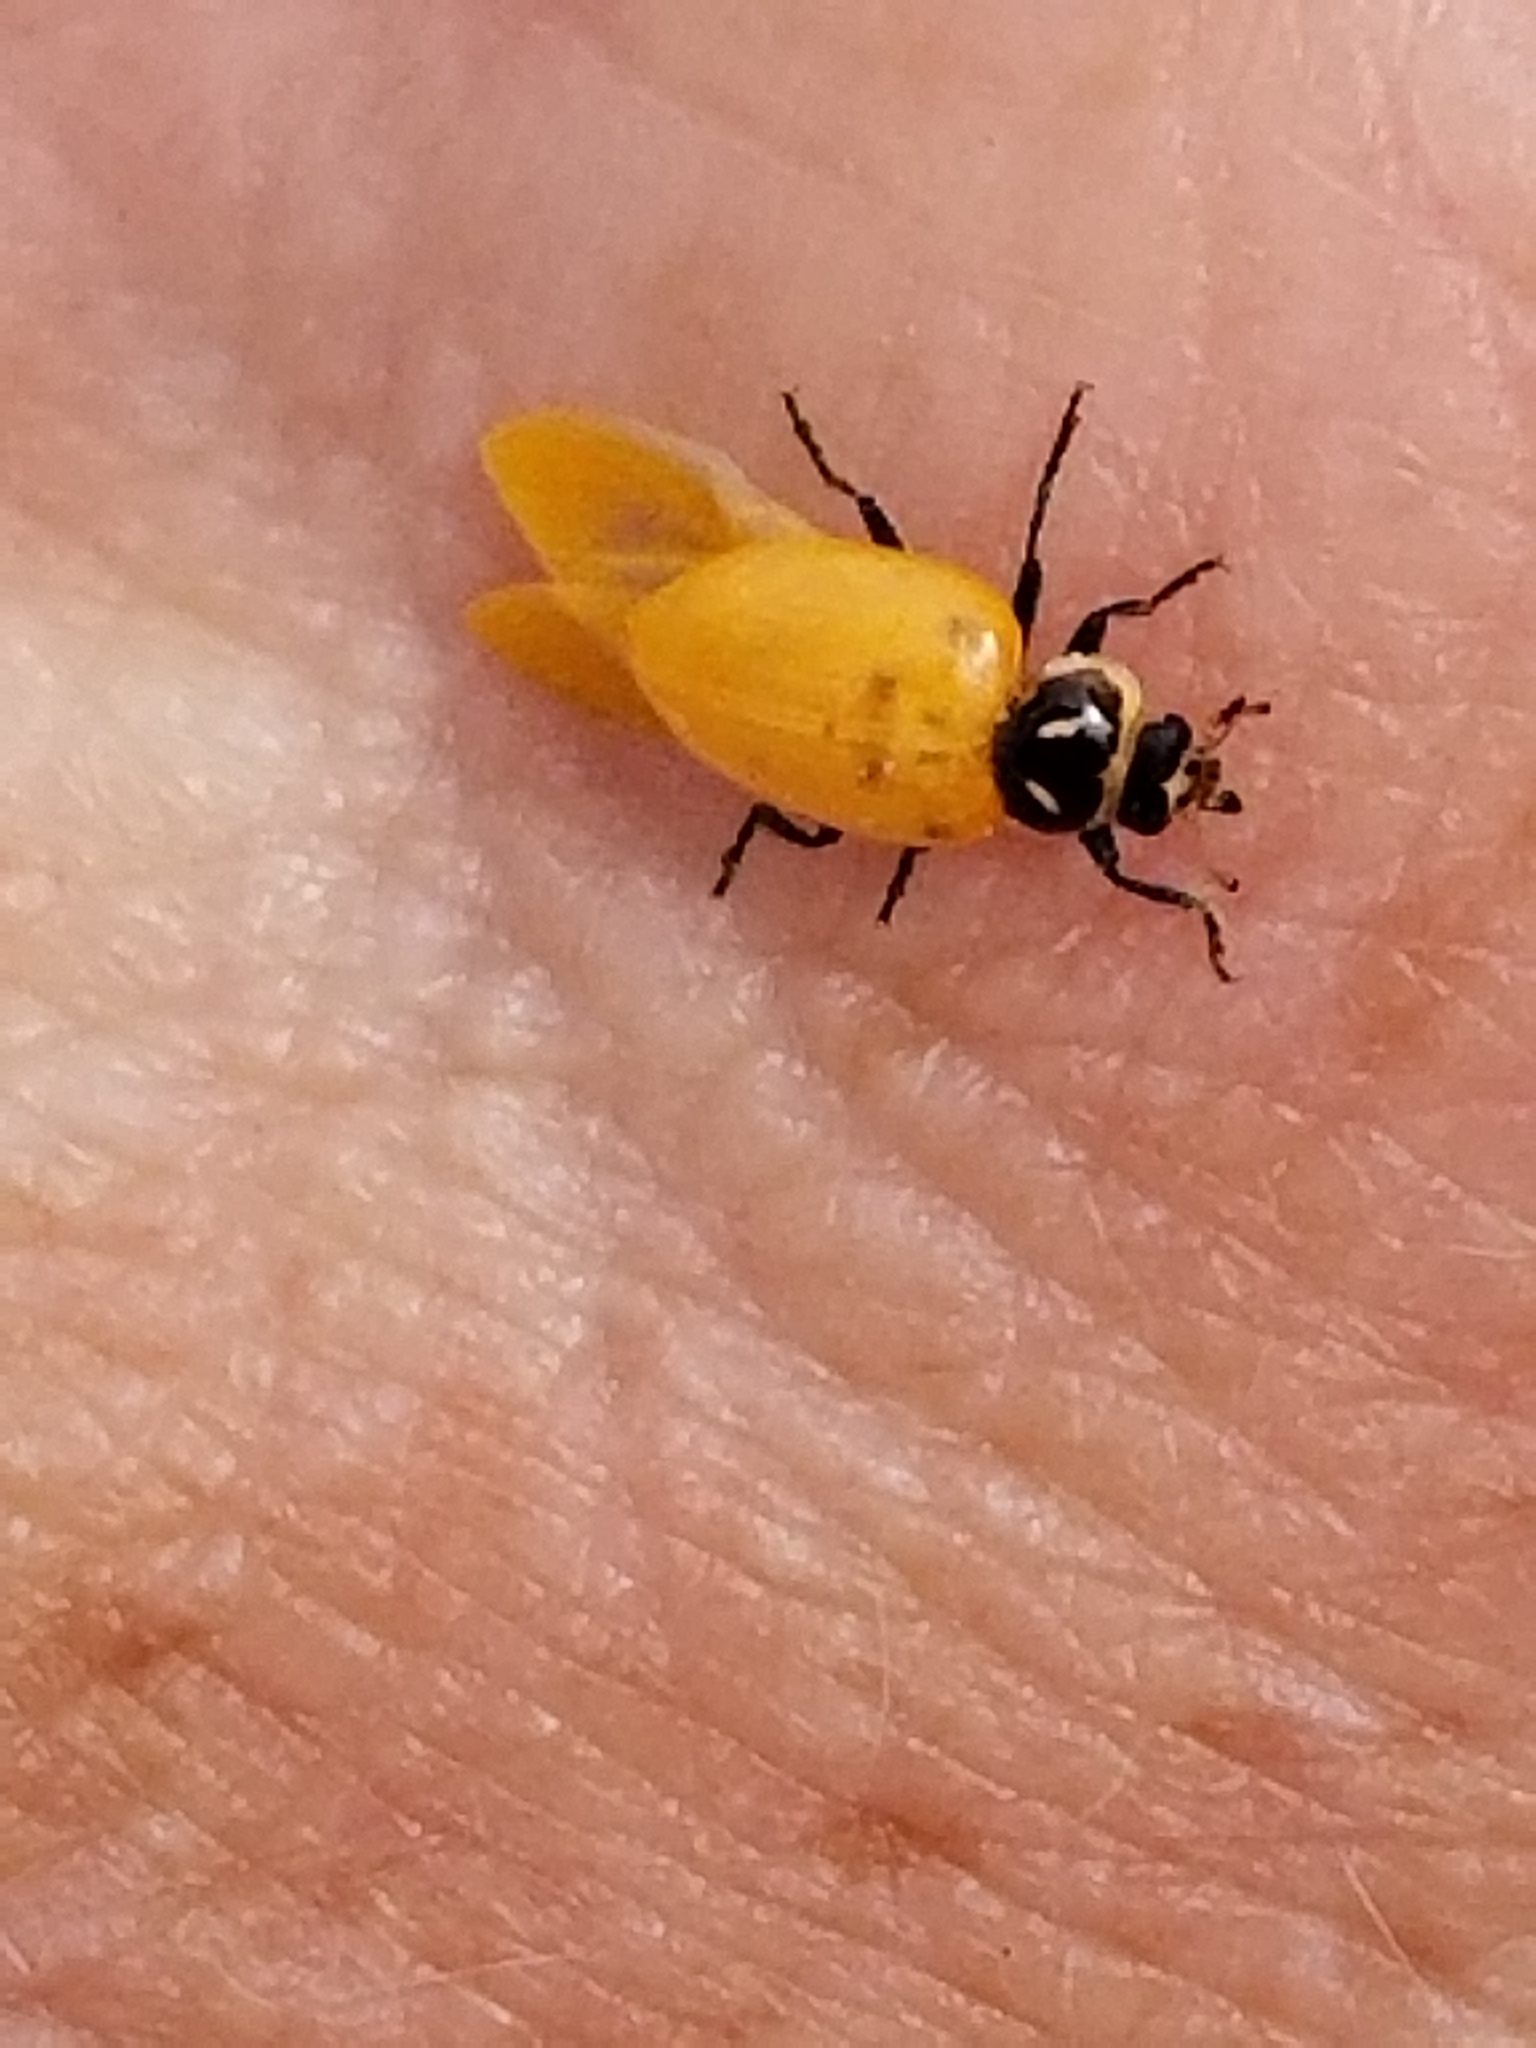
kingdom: Animalia
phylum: Arthropoda
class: Insecta
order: Coleoptera
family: Coccinellidae
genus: Hippodamia
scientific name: Hippodamia convergens
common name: Convergent lady beetle
